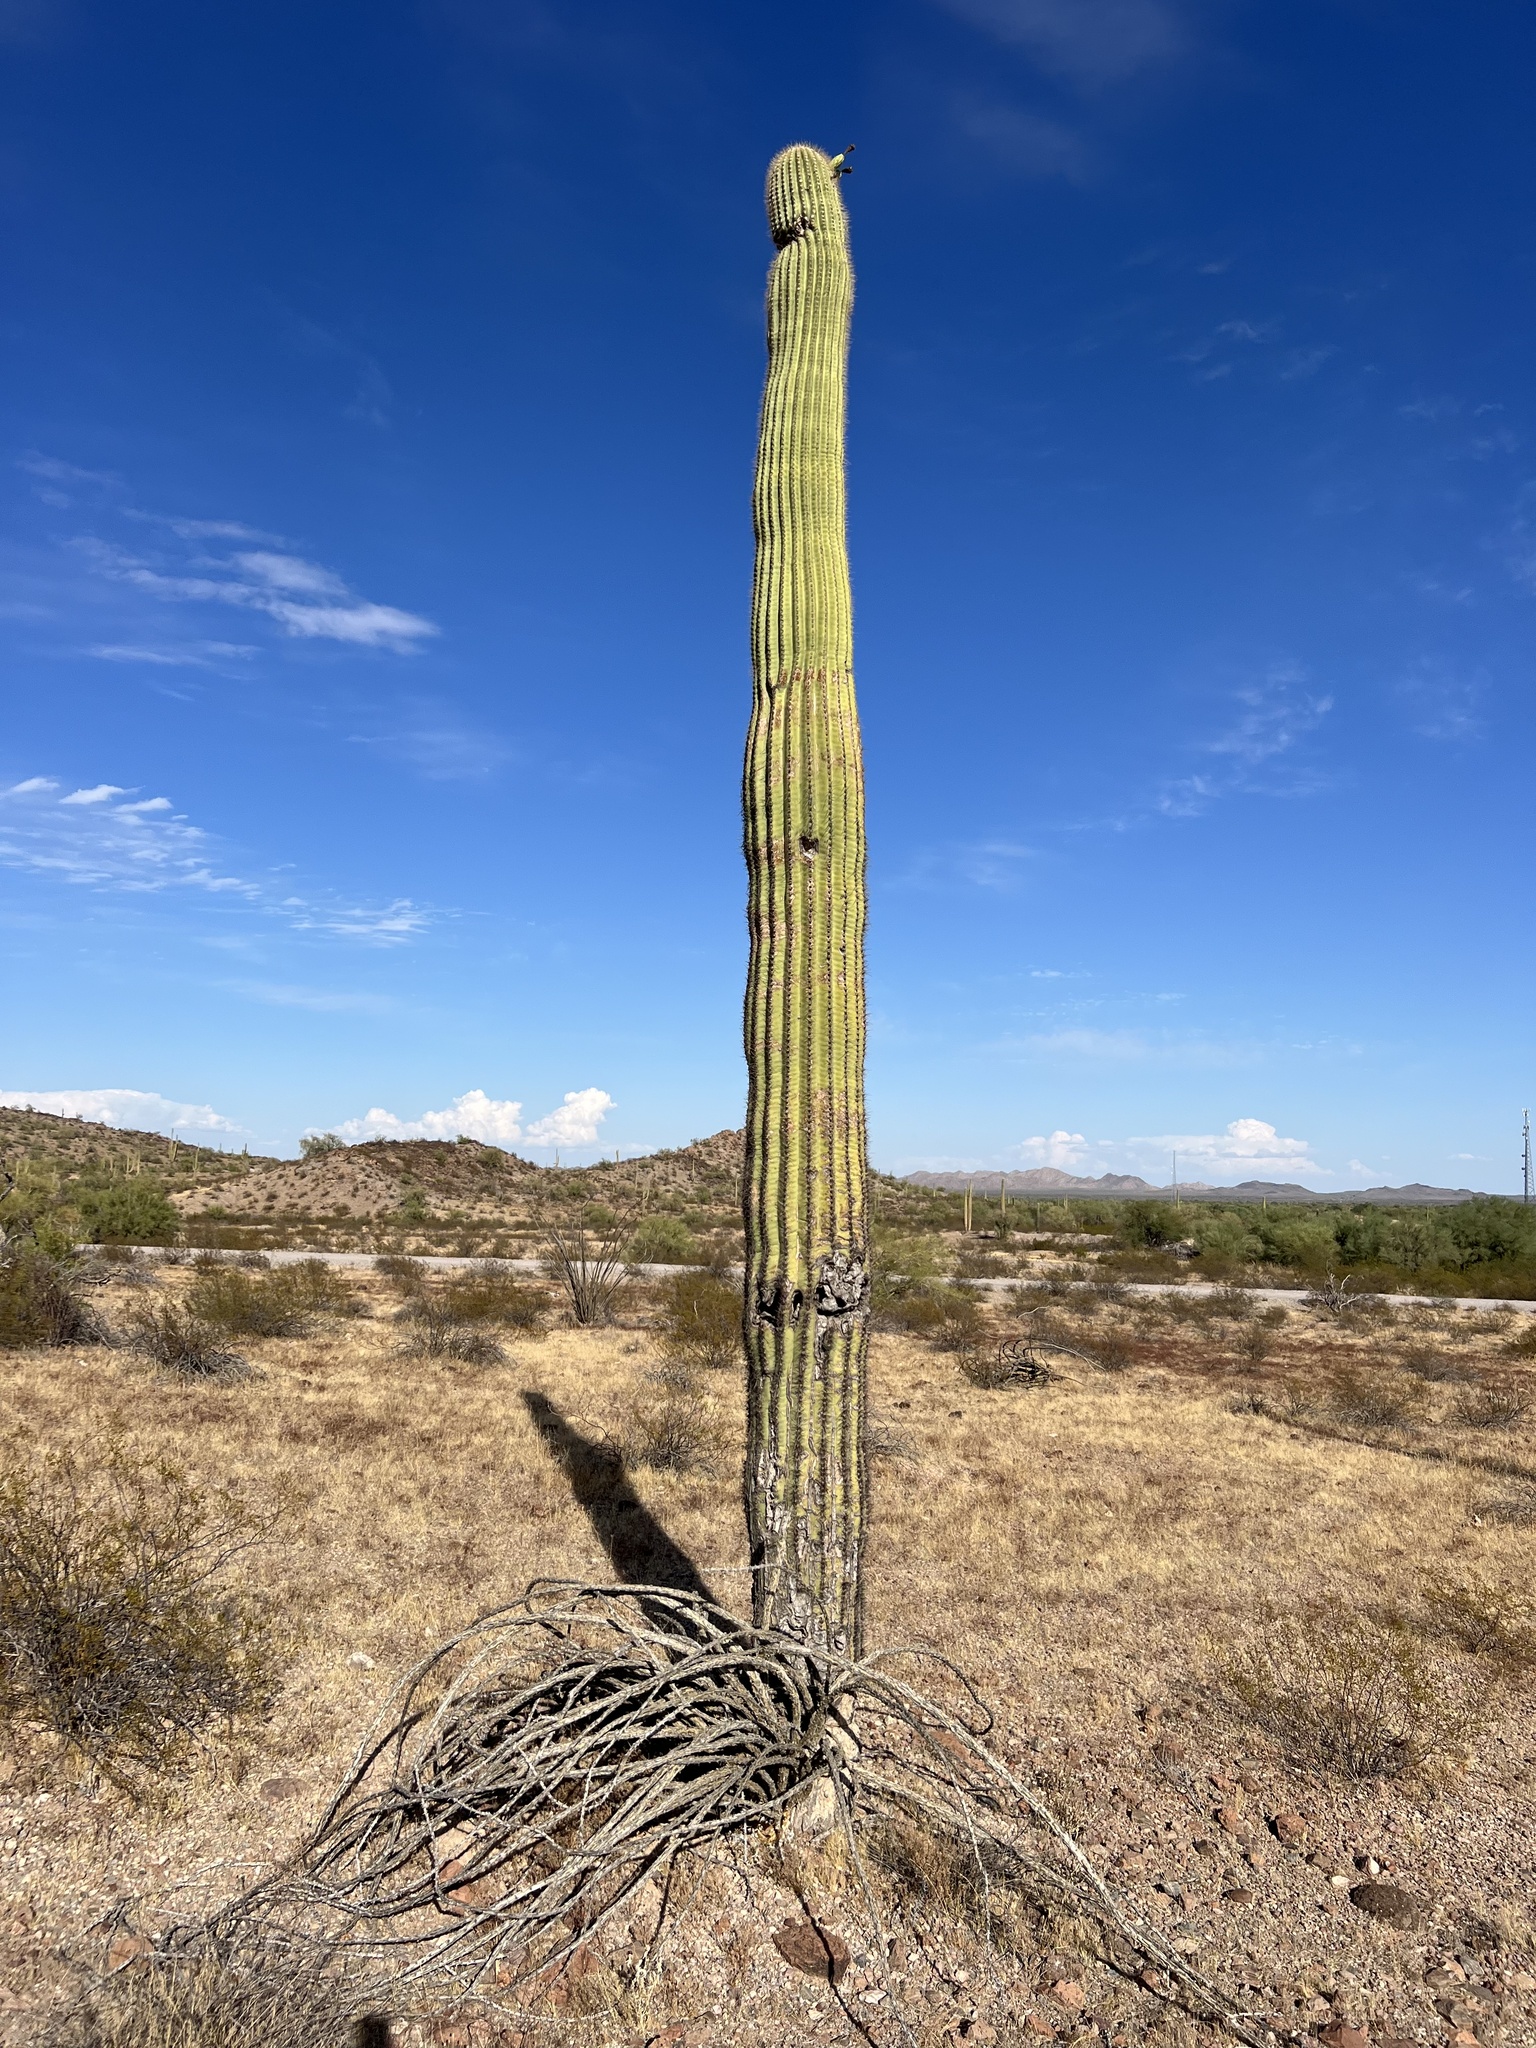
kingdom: Plantae
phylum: Tracheophyta
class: Magnoliopsida
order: Caryophyllales
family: Cactaceae
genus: Carnegiea
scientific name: Carnegiea gigantea
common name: Saguaro
